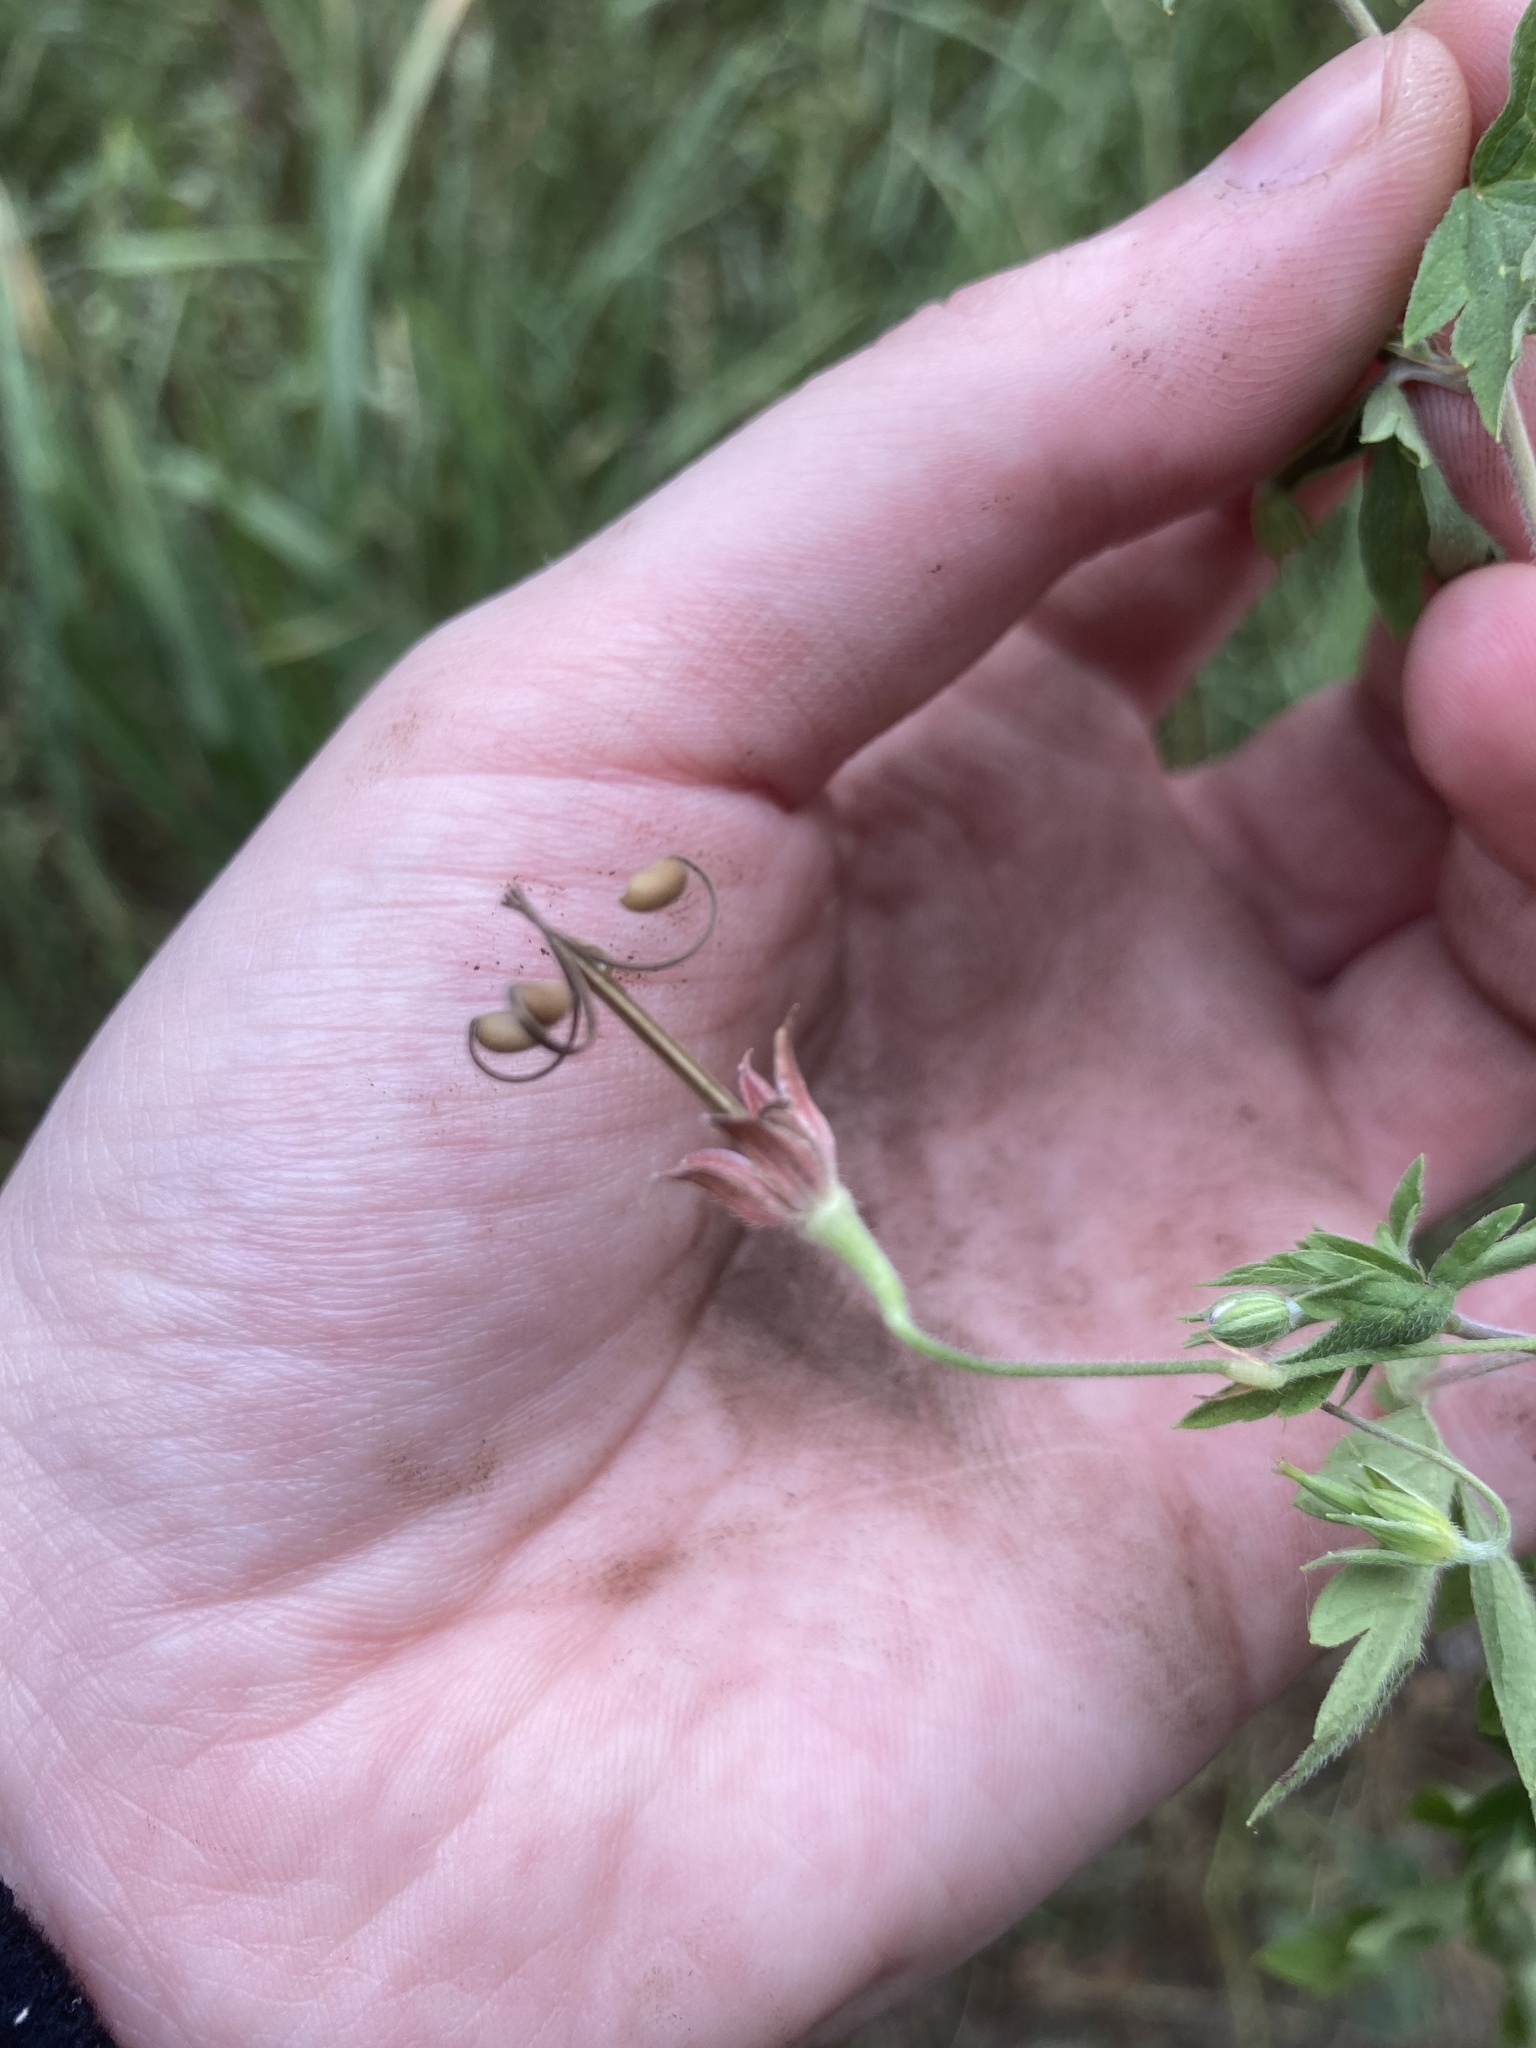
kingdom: Plantae
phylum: Tracheophyta
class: Magnoliopsida
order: Geraniales
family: Geraniaceae
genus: Geranium
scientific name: Geranium sibiricum
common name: Siberian crane's-bill
